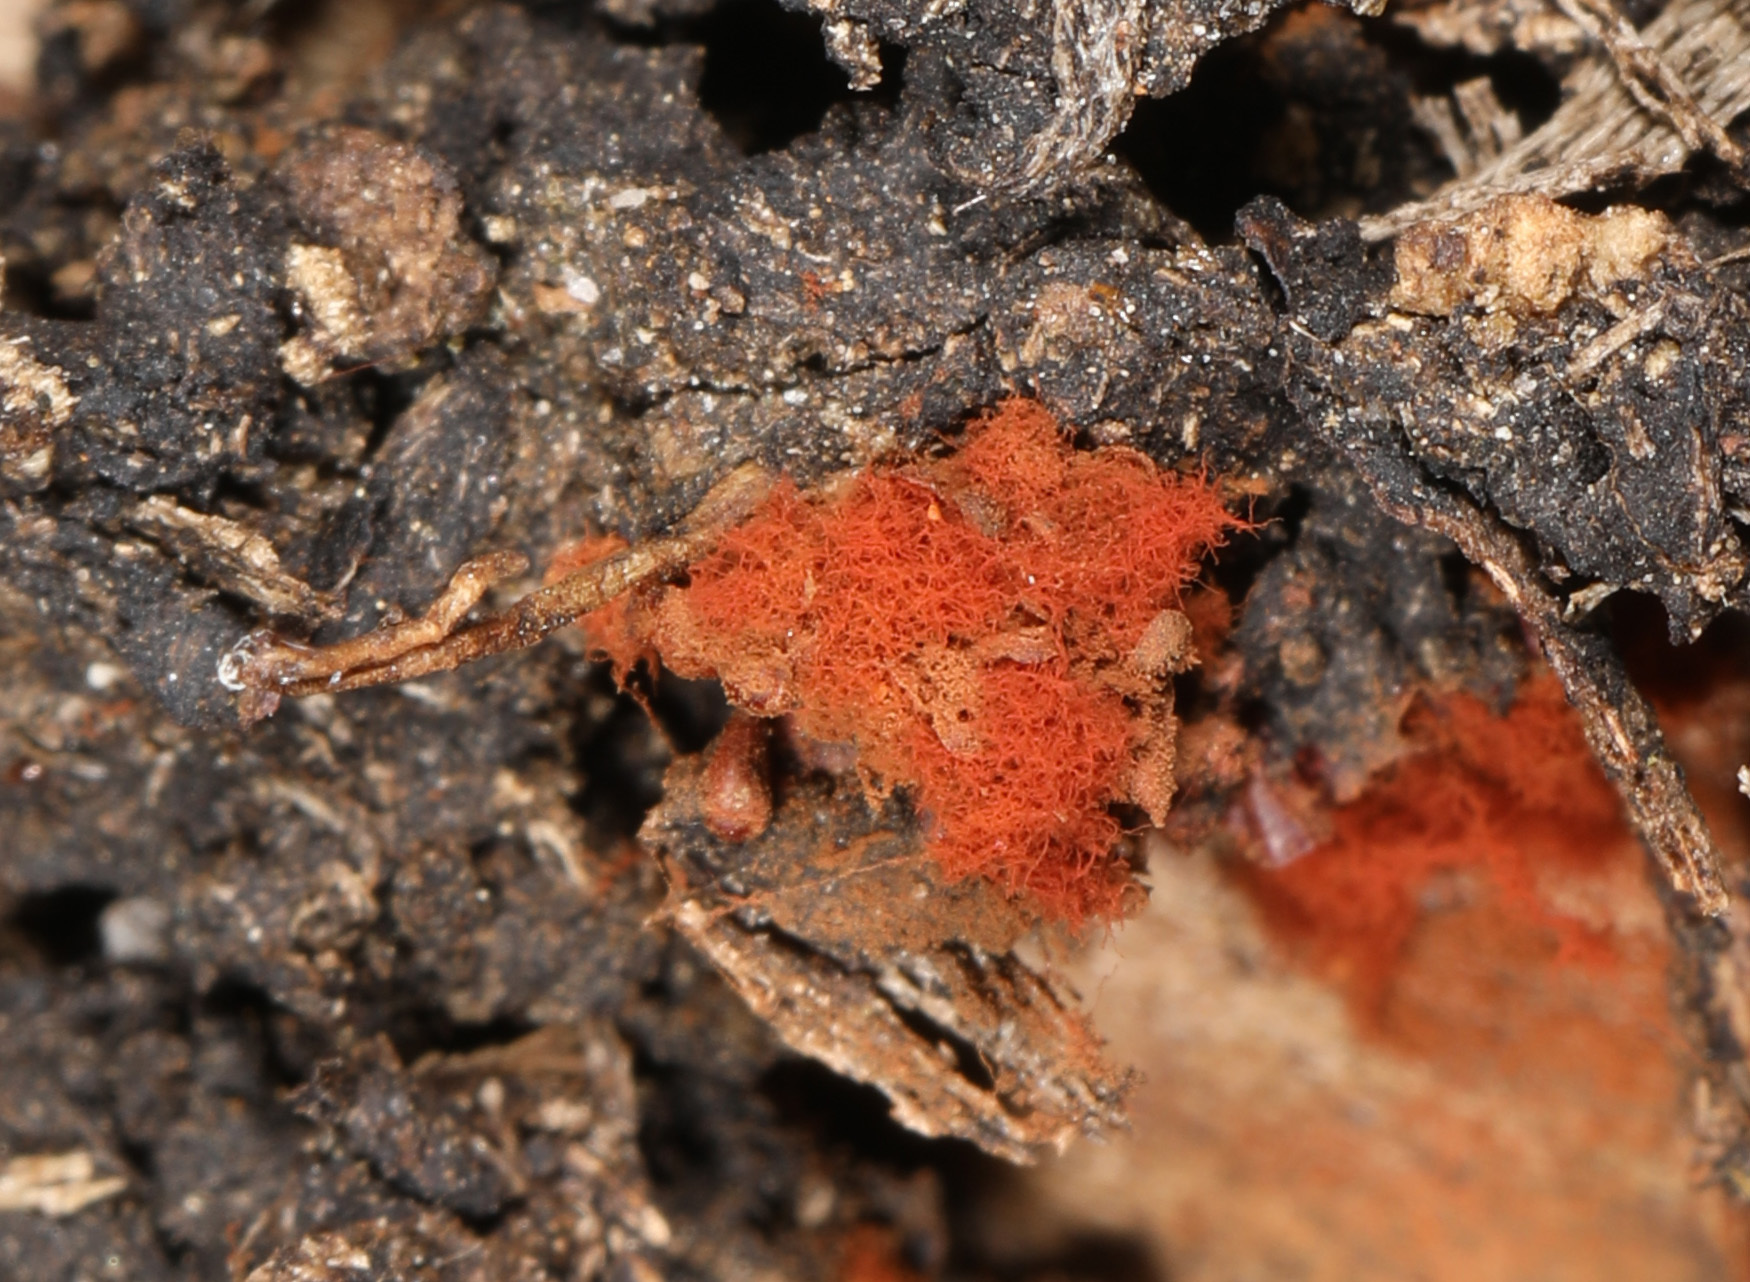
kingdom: Protozoa
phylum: Mycetozoa
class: Myxomycetes
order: Trichiales
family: Trichiaceae
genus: Metatrichia
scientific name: Metatrichia vesparia
